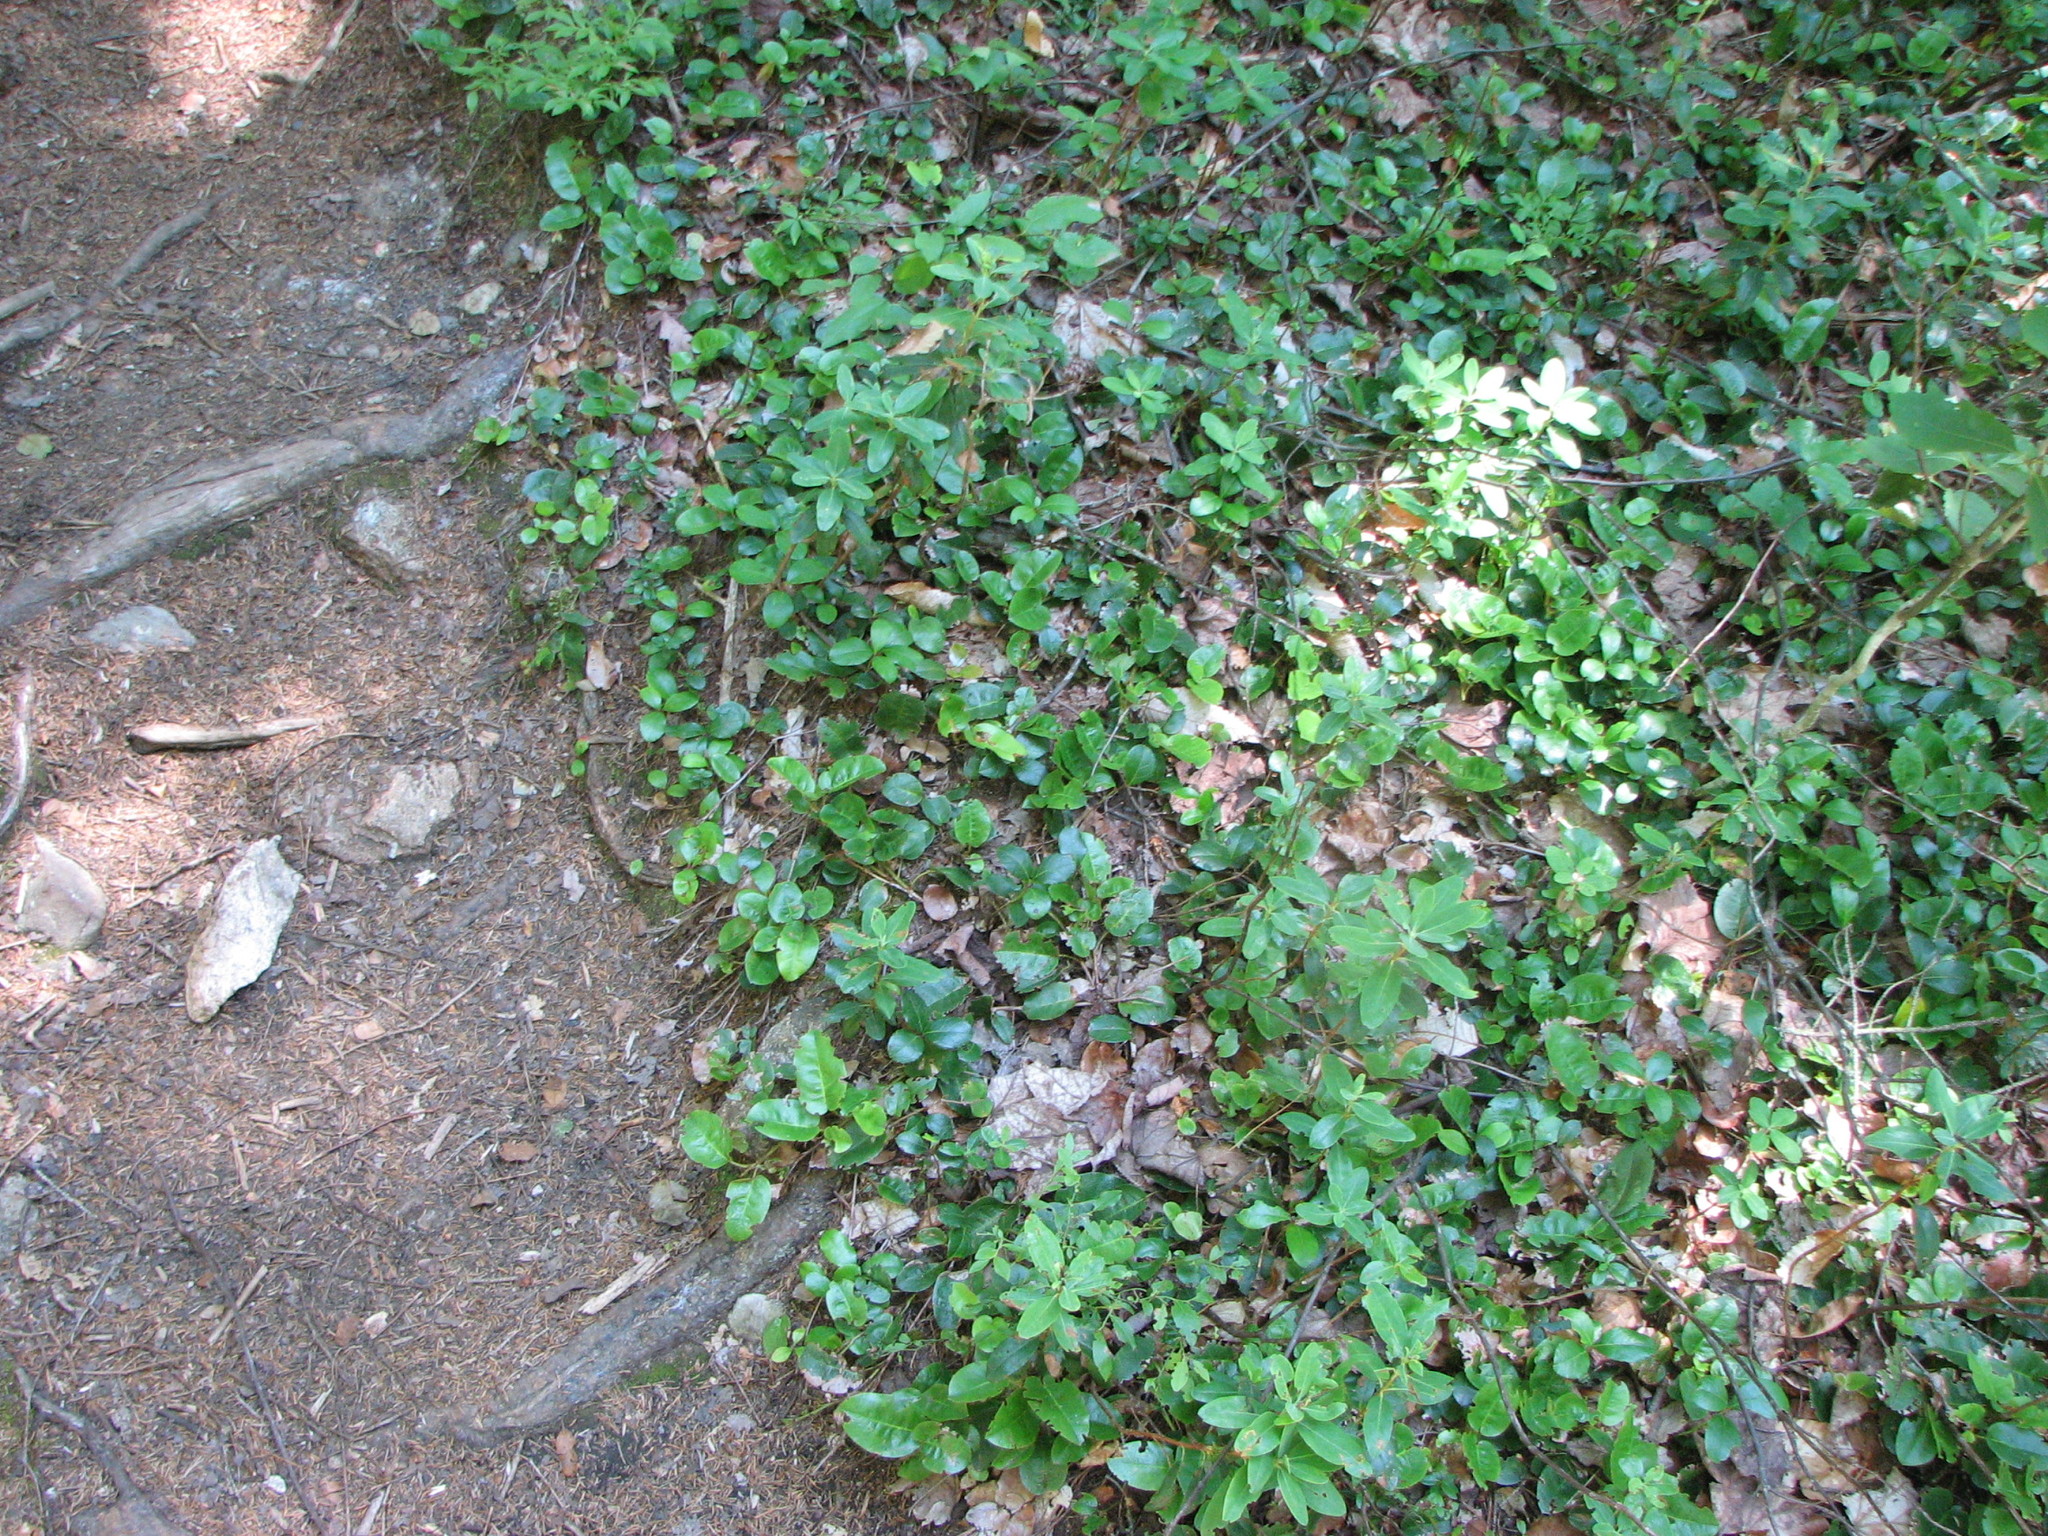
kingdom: Plantae
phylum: Tracheophyta
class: Magnoliopsida
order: Ericales
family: Ericaceae
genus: Epigaea
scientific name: Epigaea repens
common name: Gravelroot
